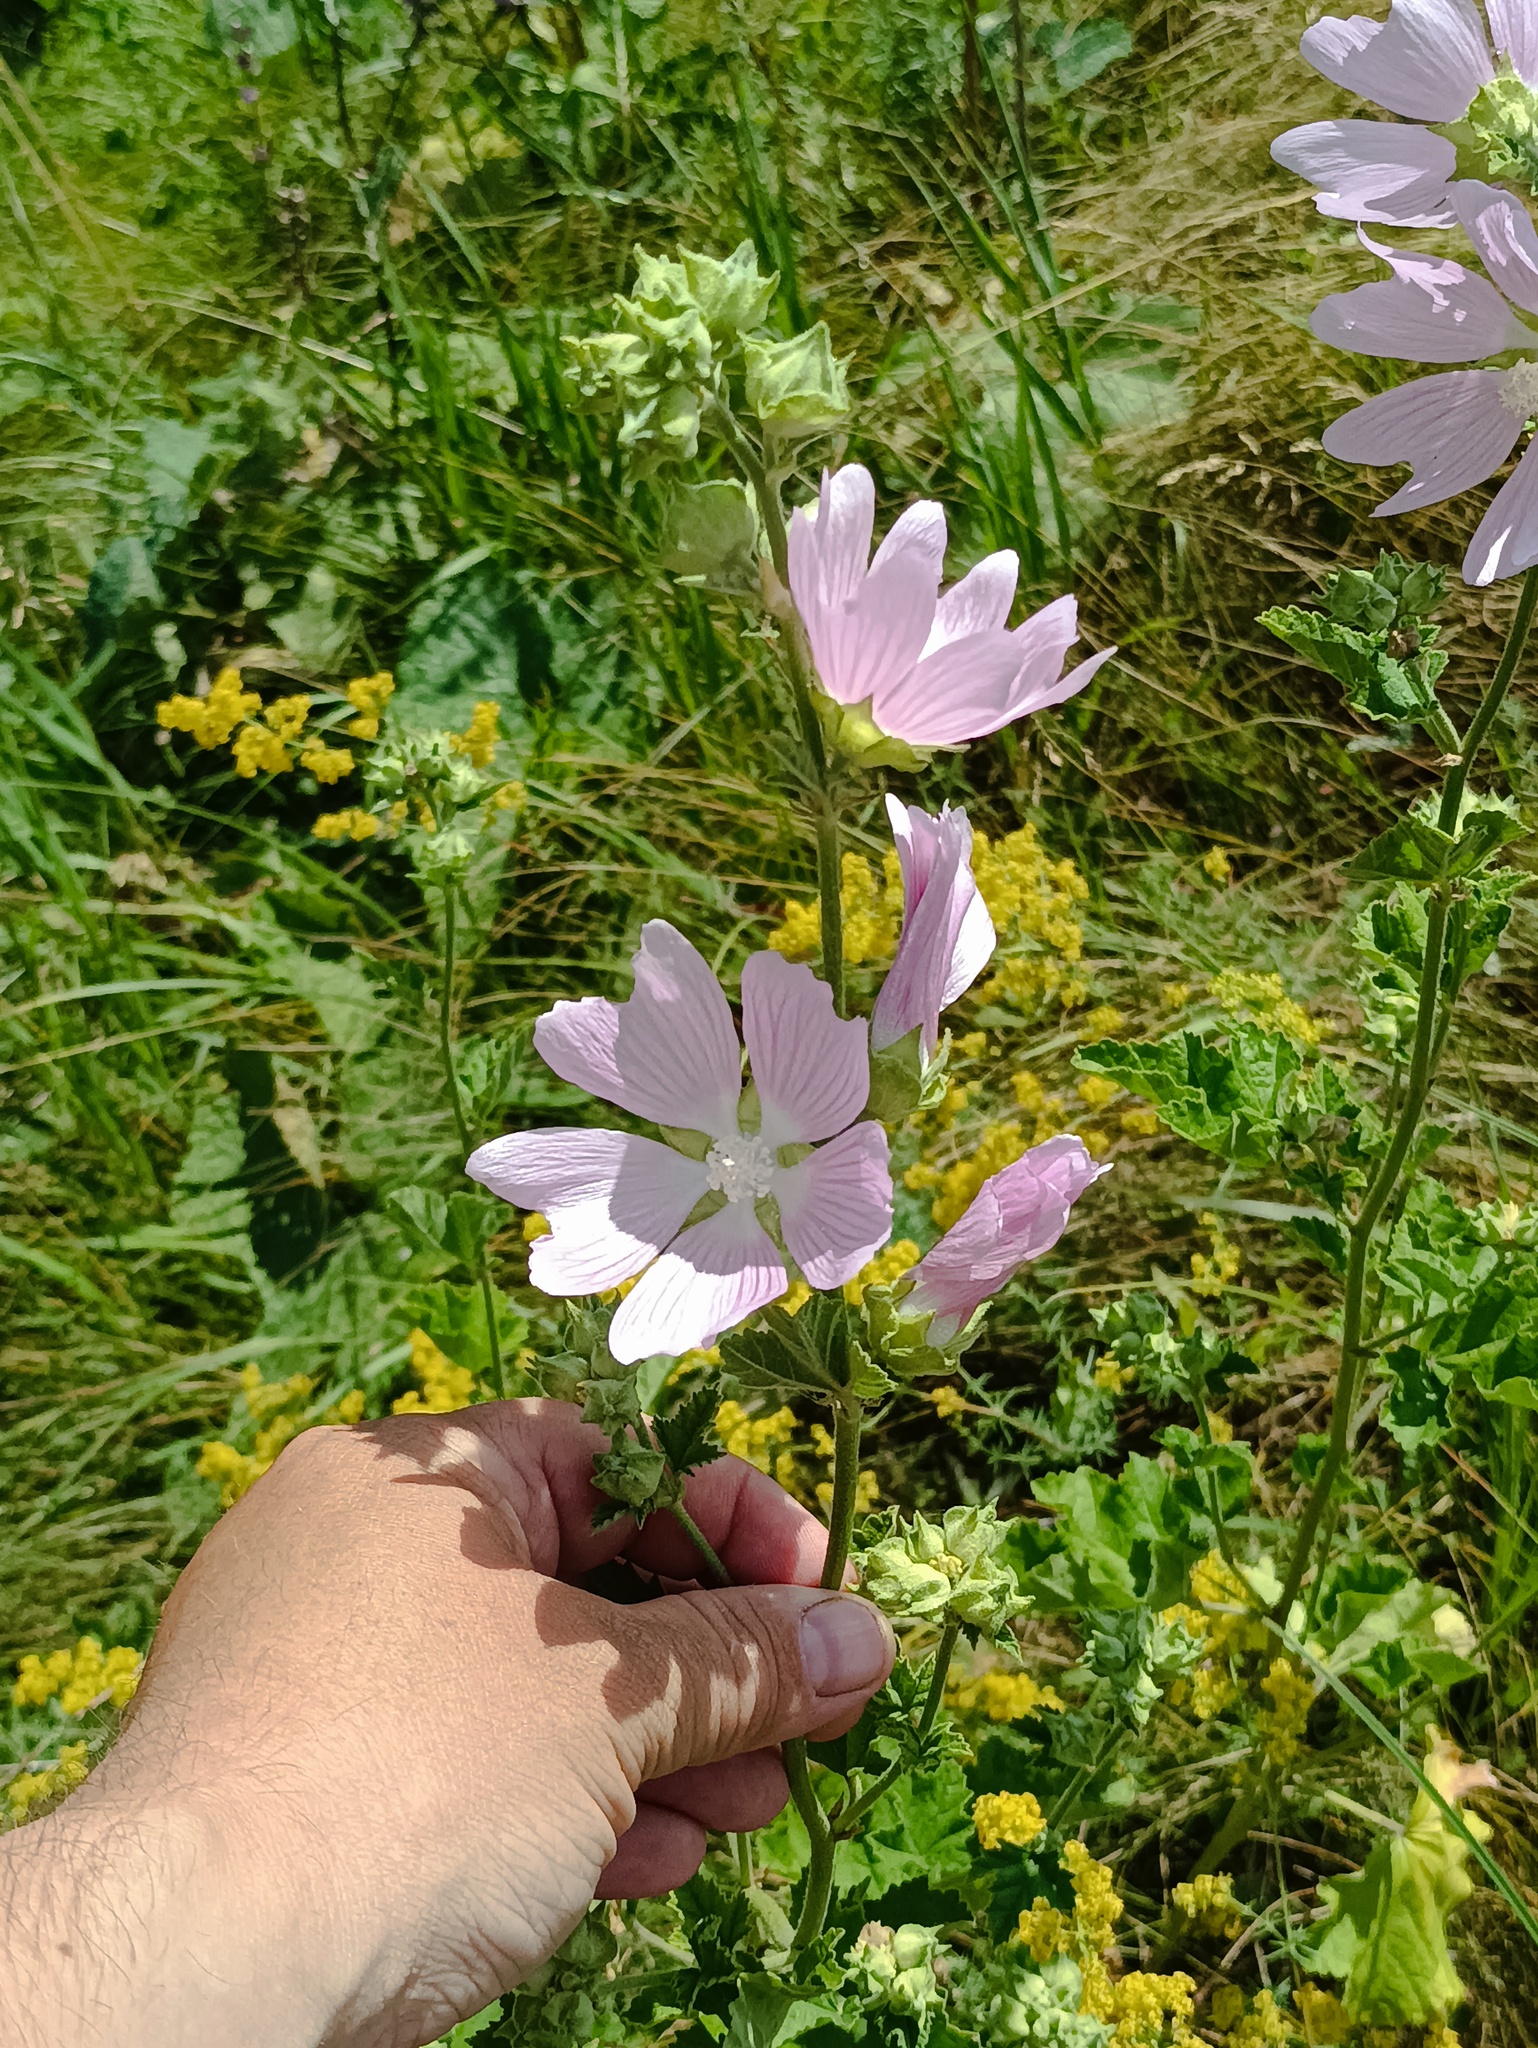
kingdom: Plantae
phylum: Tracheophyta
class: Magnoliopsida
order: Malvales
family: Malvaceae
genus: Malva
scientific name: Malva thuringiaca
